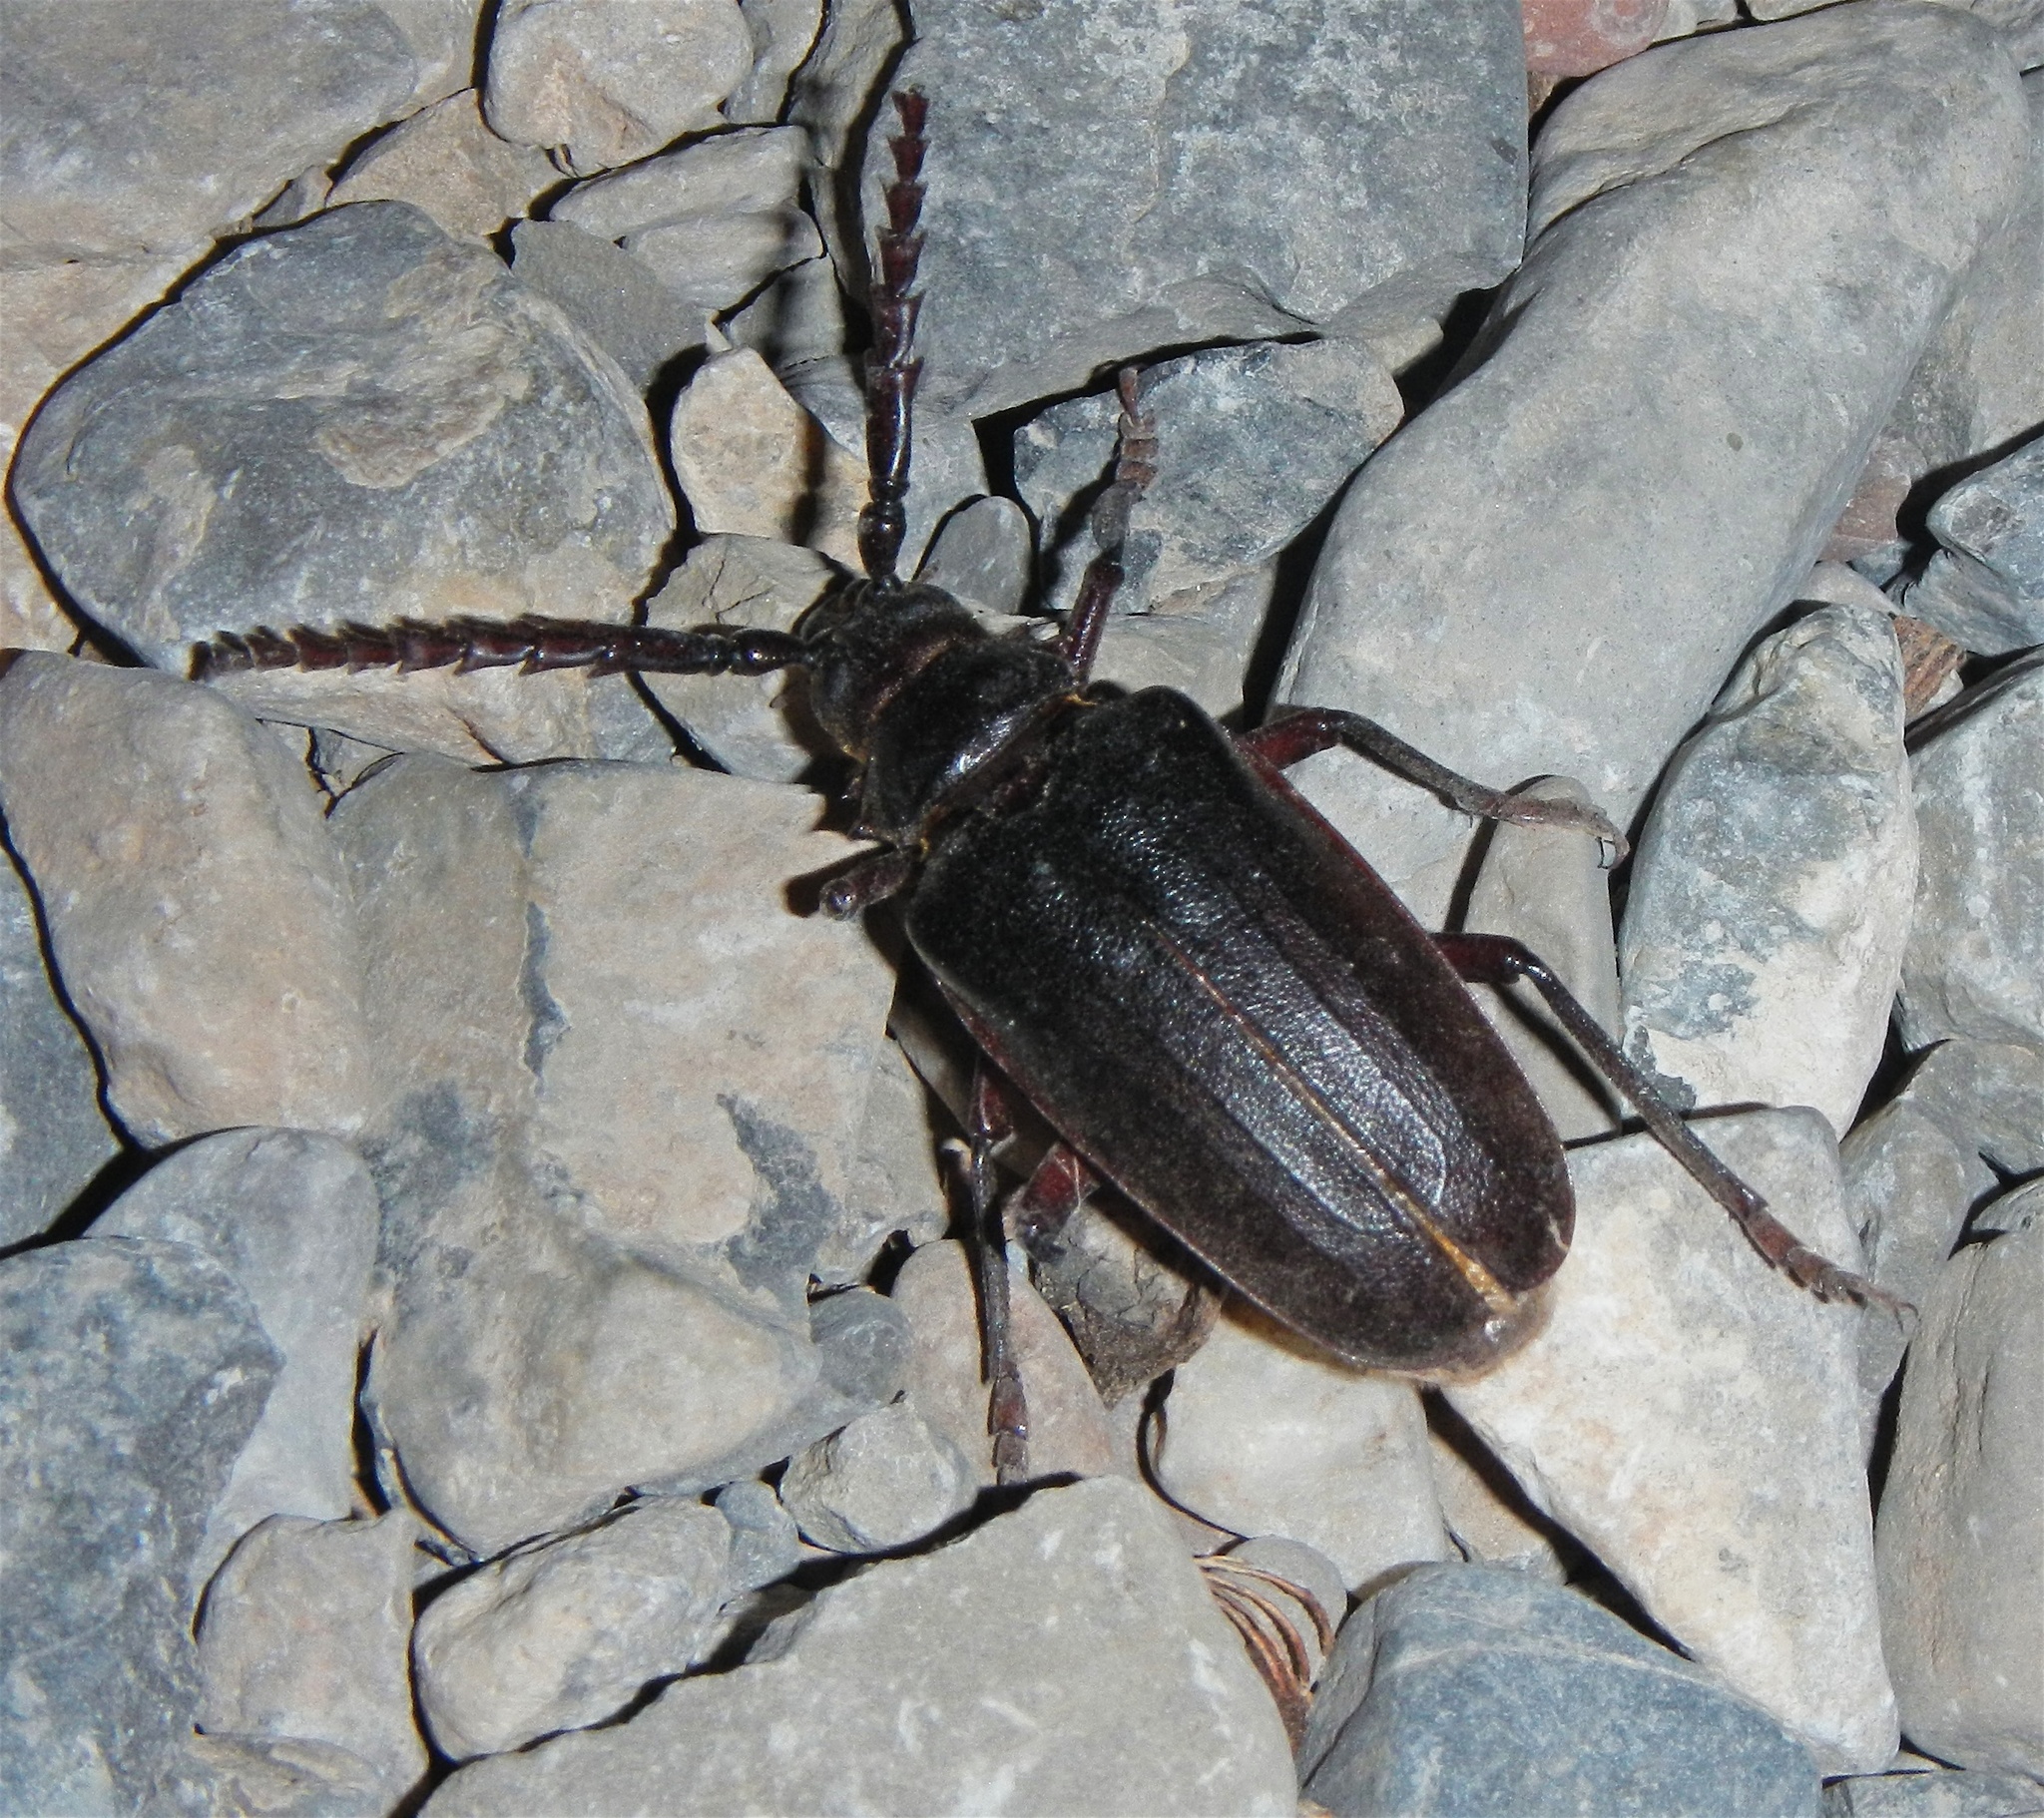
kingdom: Animalia
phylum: Arthropoda
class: Insecta
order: Coleoptera
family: Cerambycidae
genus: Prionus
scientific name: Prionus californicus
